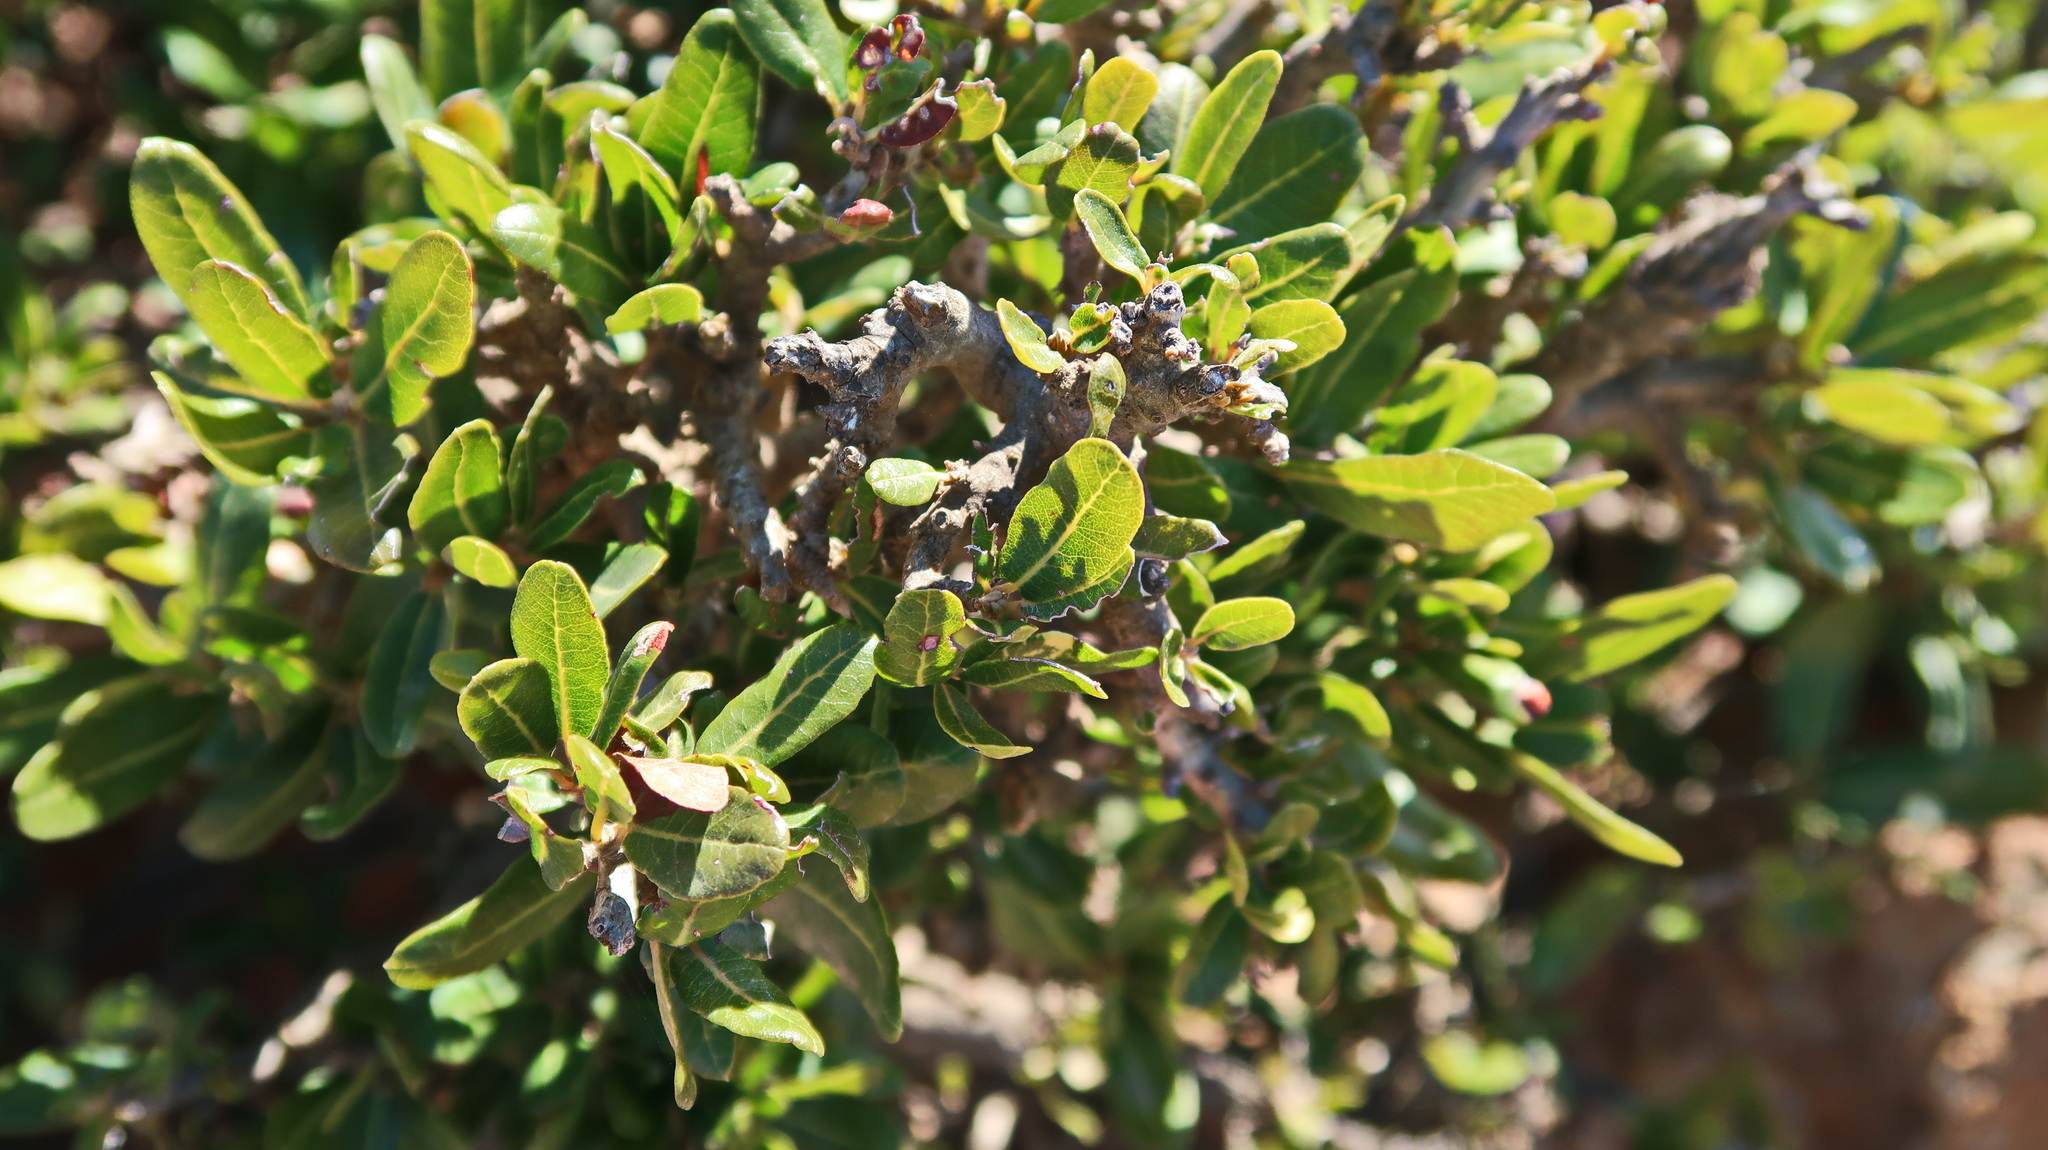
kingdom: Plantae
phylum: Tracheophyta
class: Magnoliopsida
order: Sapindales
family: Sapindaceae
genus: Pappea
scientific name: Pappea capensis
